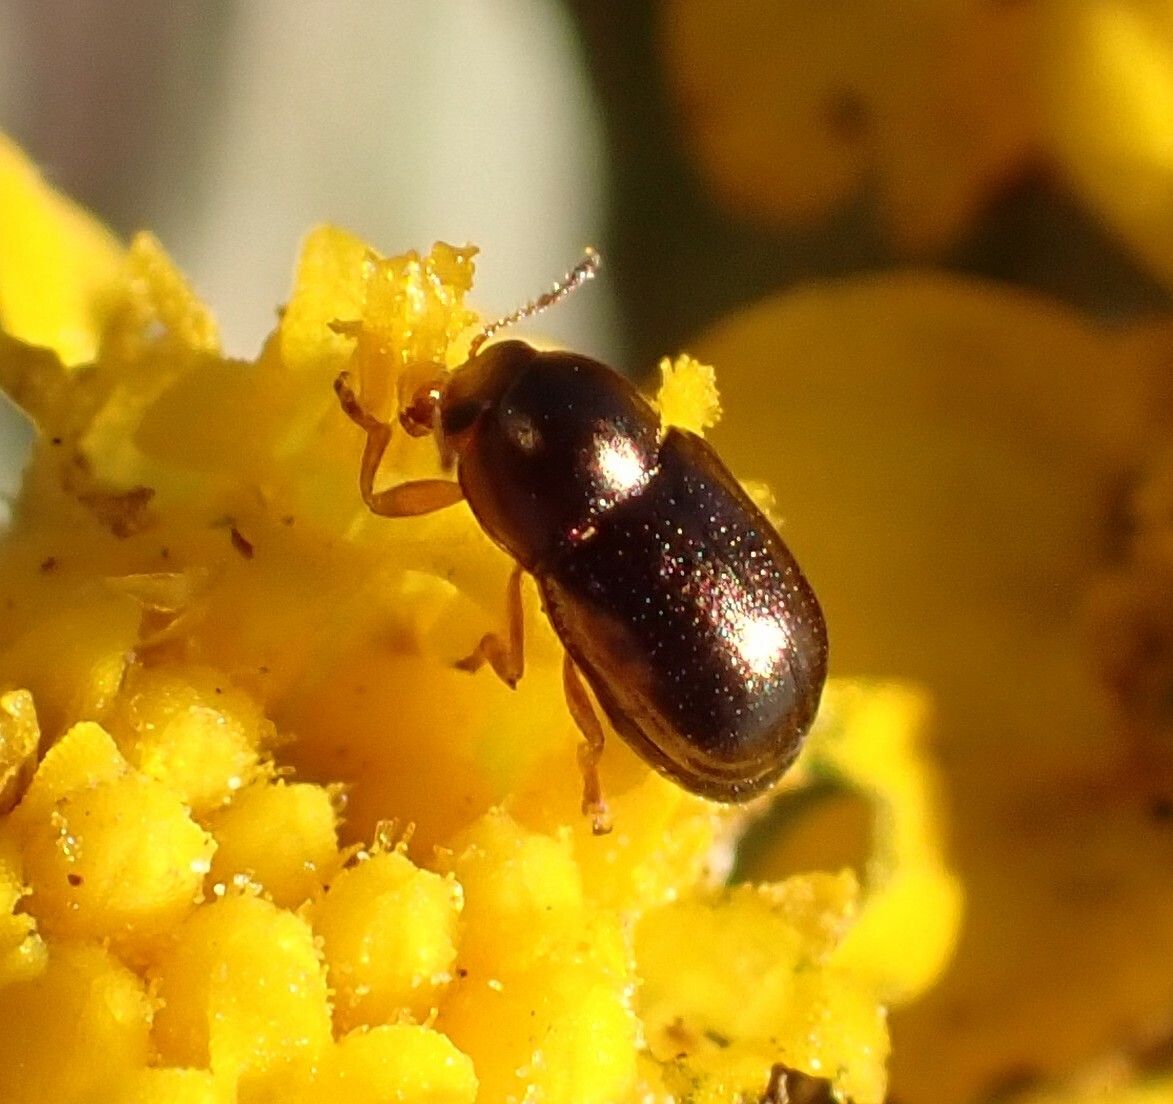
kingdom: Animalia
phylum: Arthropoda
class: Insecta
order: Coleoptera
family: Chrysomelidae
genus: Diachus
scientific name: Diachus auratus
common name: Bronze leaf beetle
